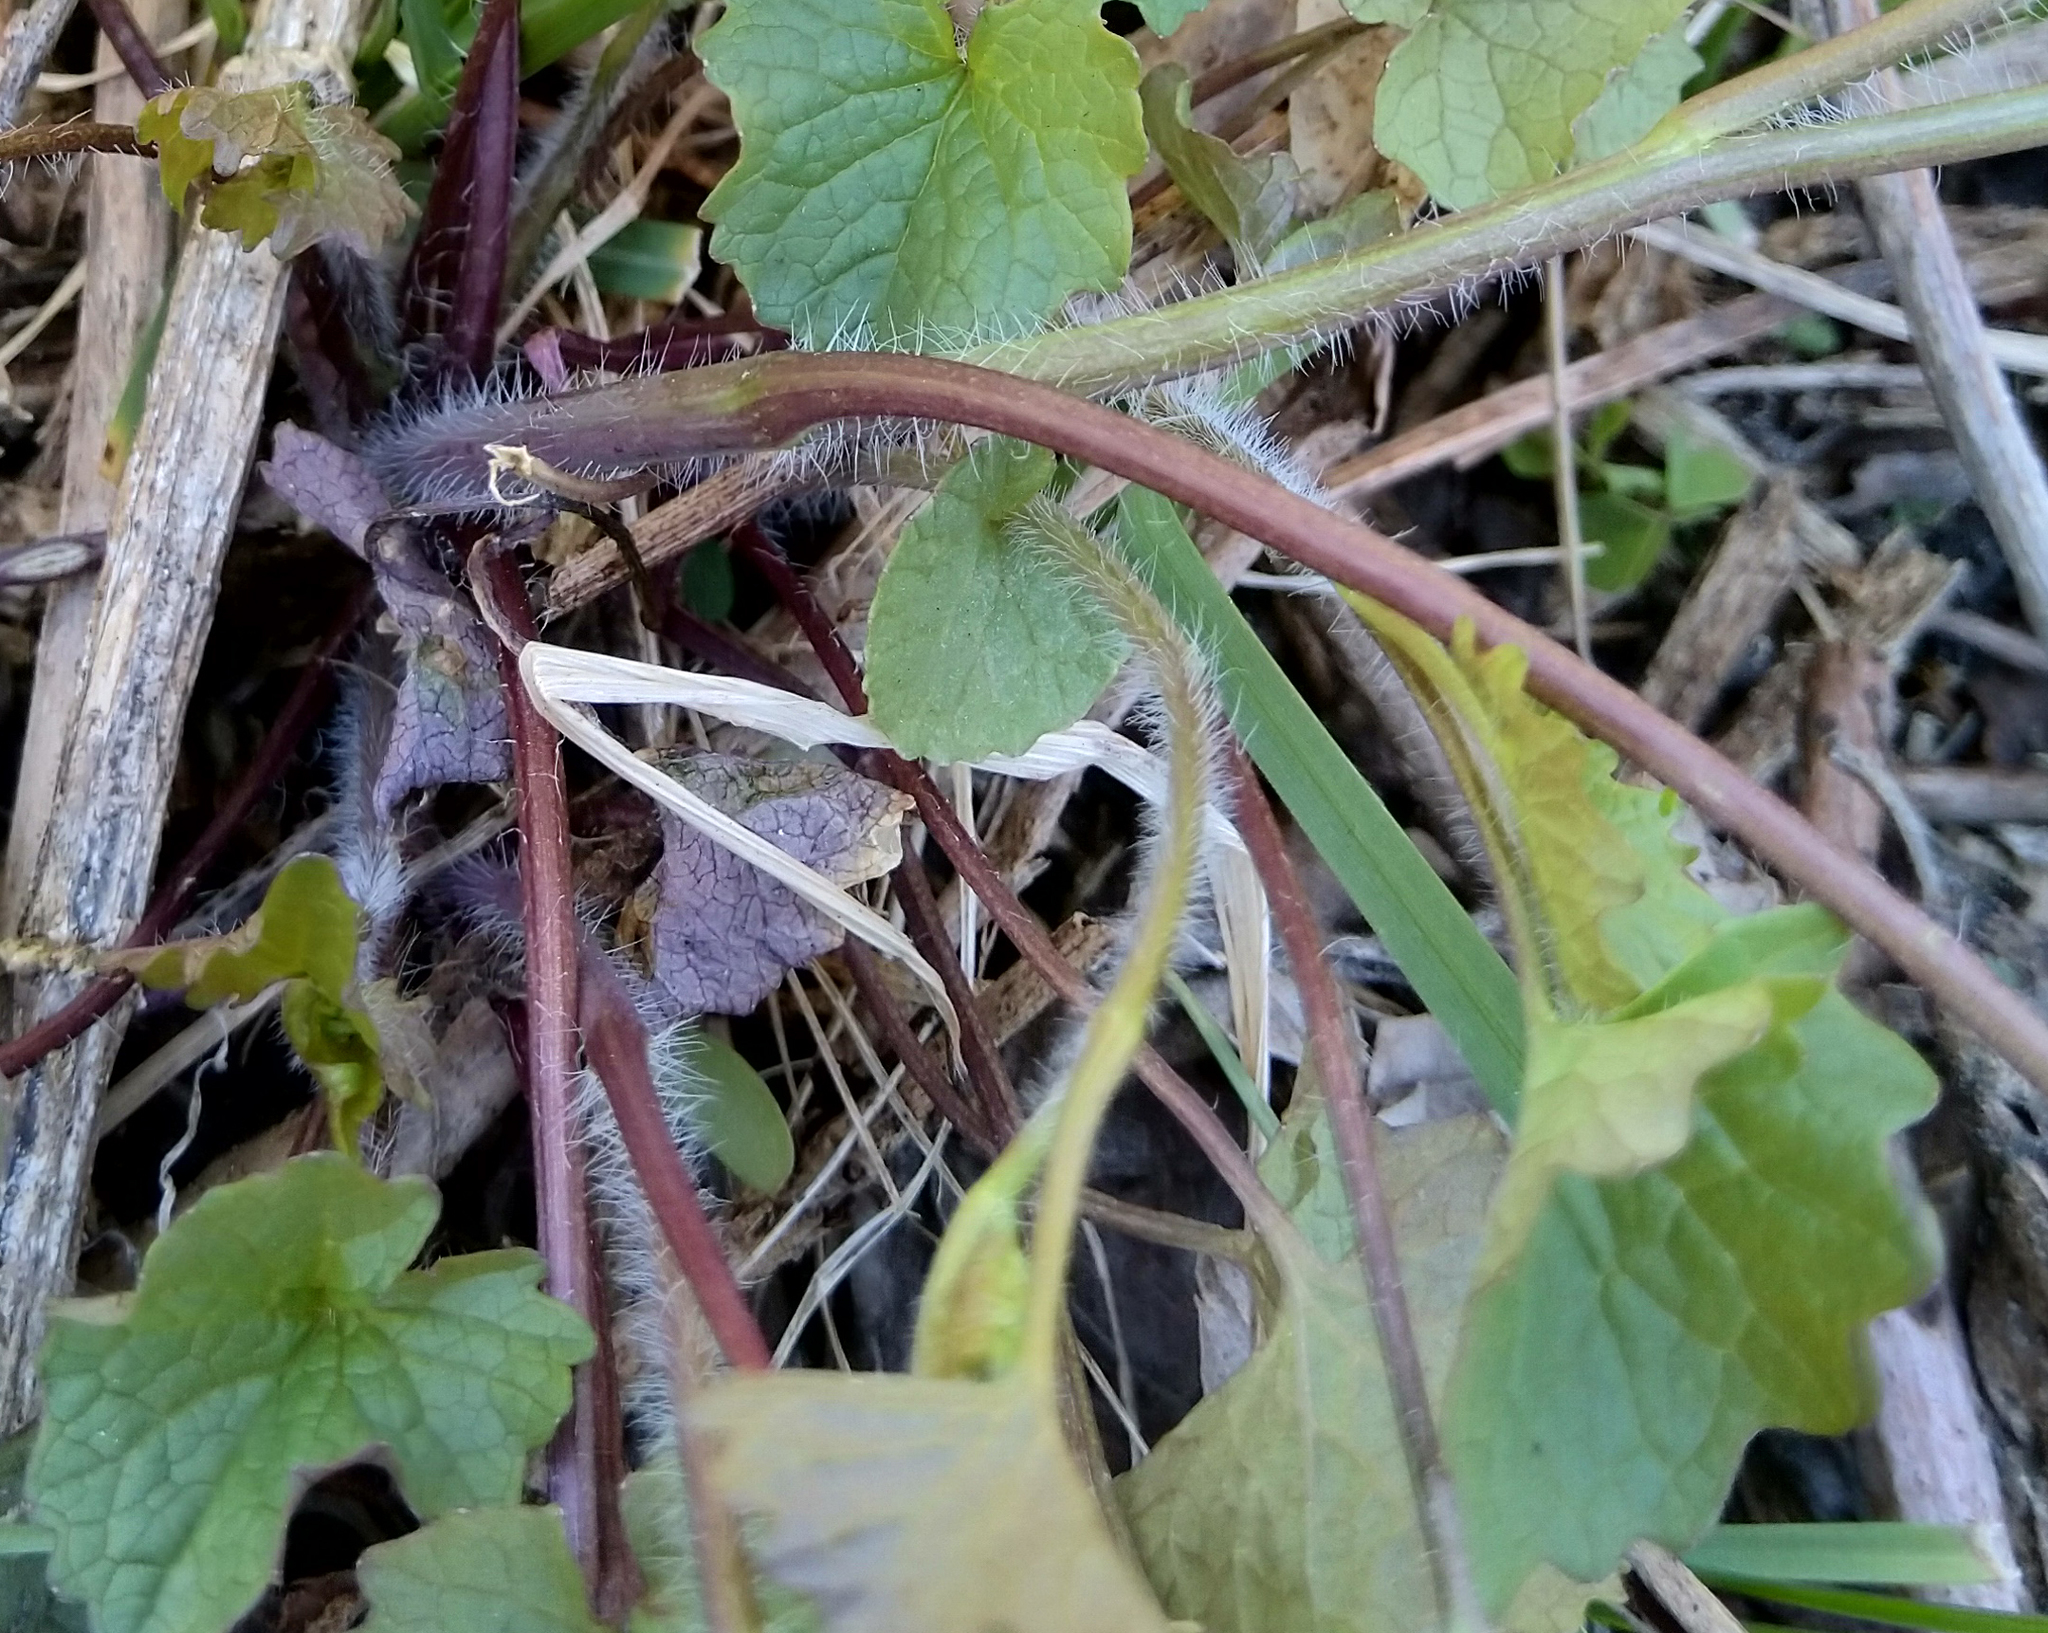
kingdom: Plantae
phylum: Tracheophyta
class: Magnoliopsida
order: Brassicales
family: Brassicaceae
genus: Alliaria
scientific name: Alliaria petiolata
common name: Garlic mustard
